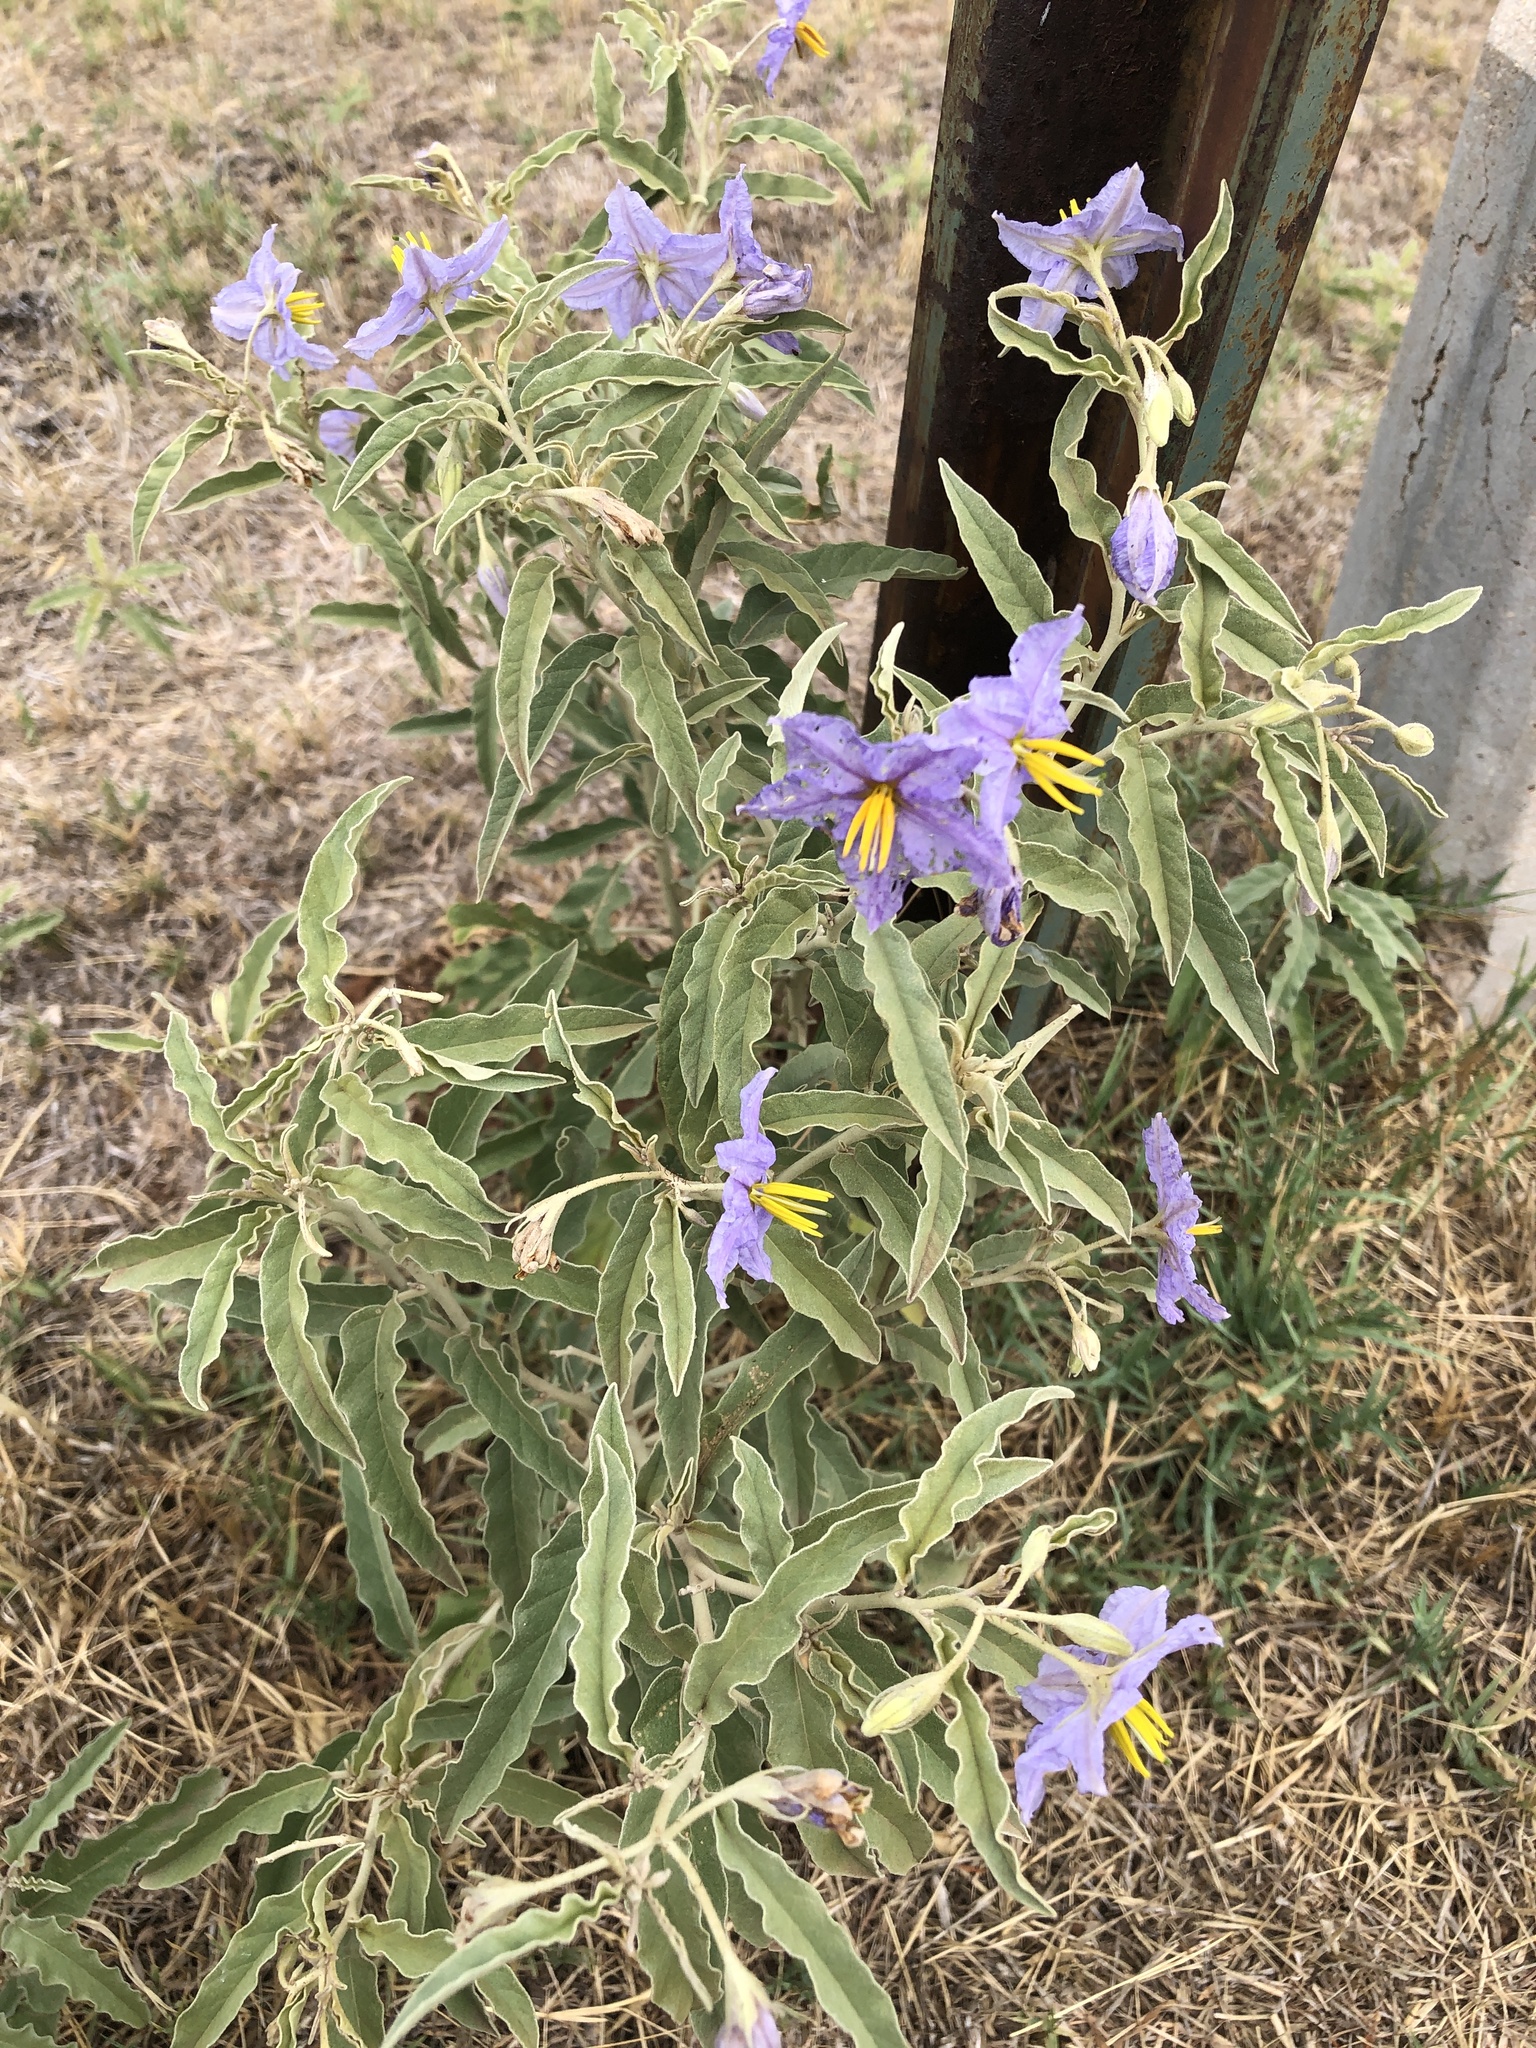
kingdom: Plantae
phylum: Tracheophyta
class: Magnoliopsida
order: Solanales
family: Solanaceae
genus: Solanum
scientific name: Solanum elaeagnifolium
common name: Silverleaf nightshade
